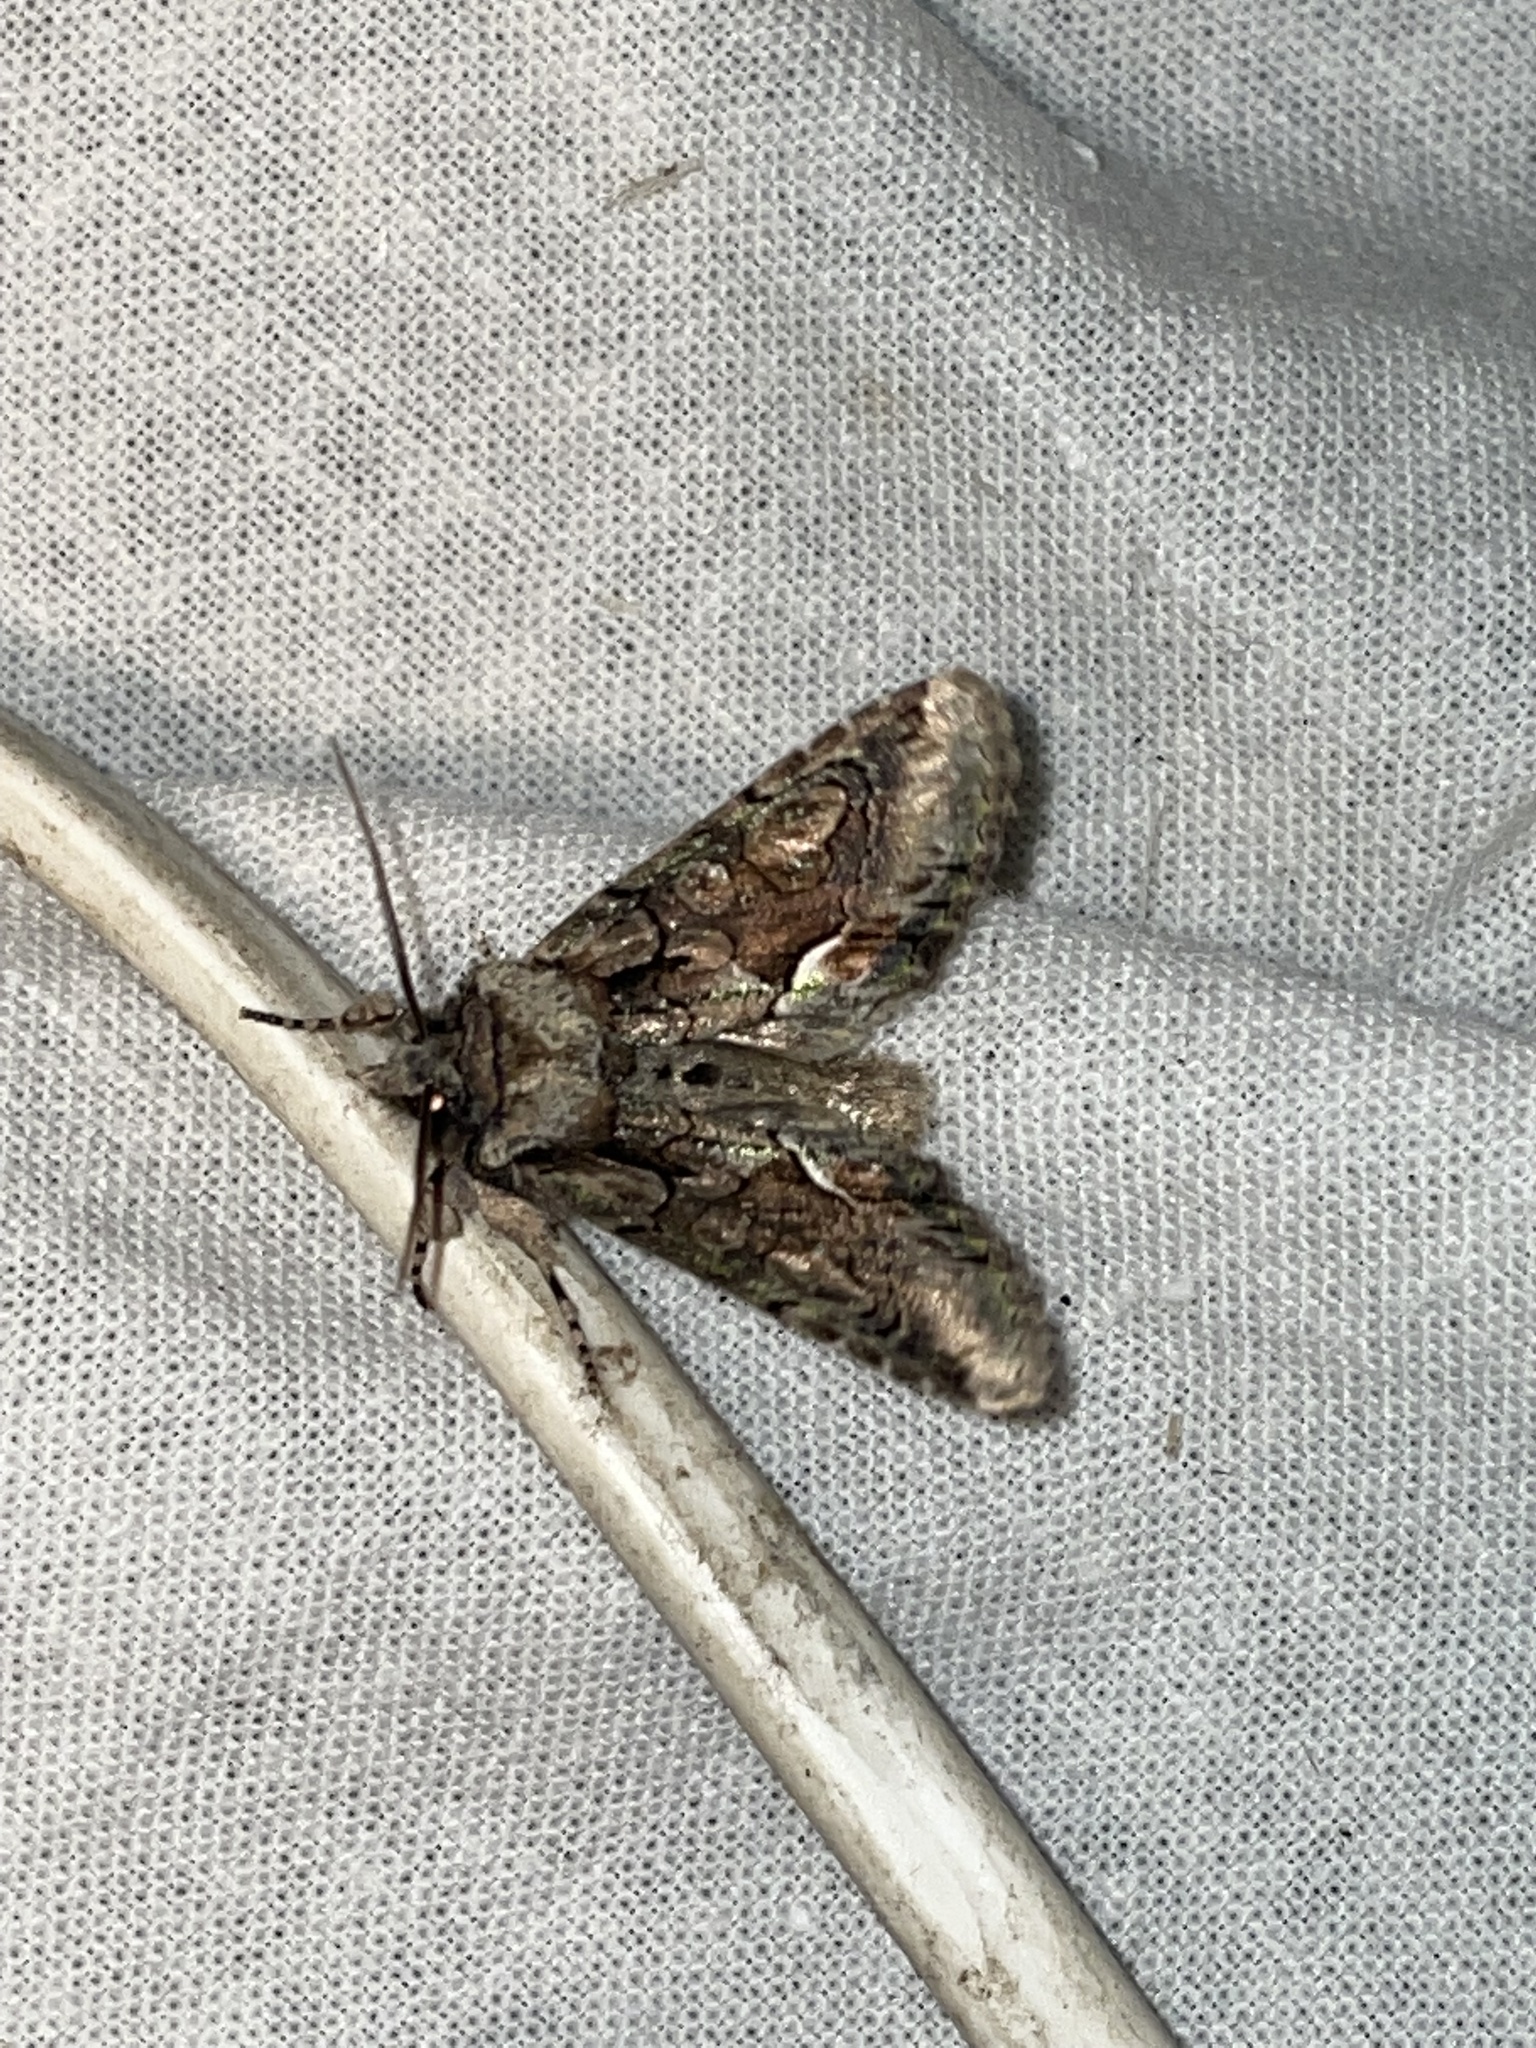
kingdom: Animalia
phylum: Arthropoda
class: Insecta
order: Lepidoptera
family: Noctuidae
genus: Allophyes
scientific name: Allophyes oxyacanthae
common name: Green-brindled crescent
